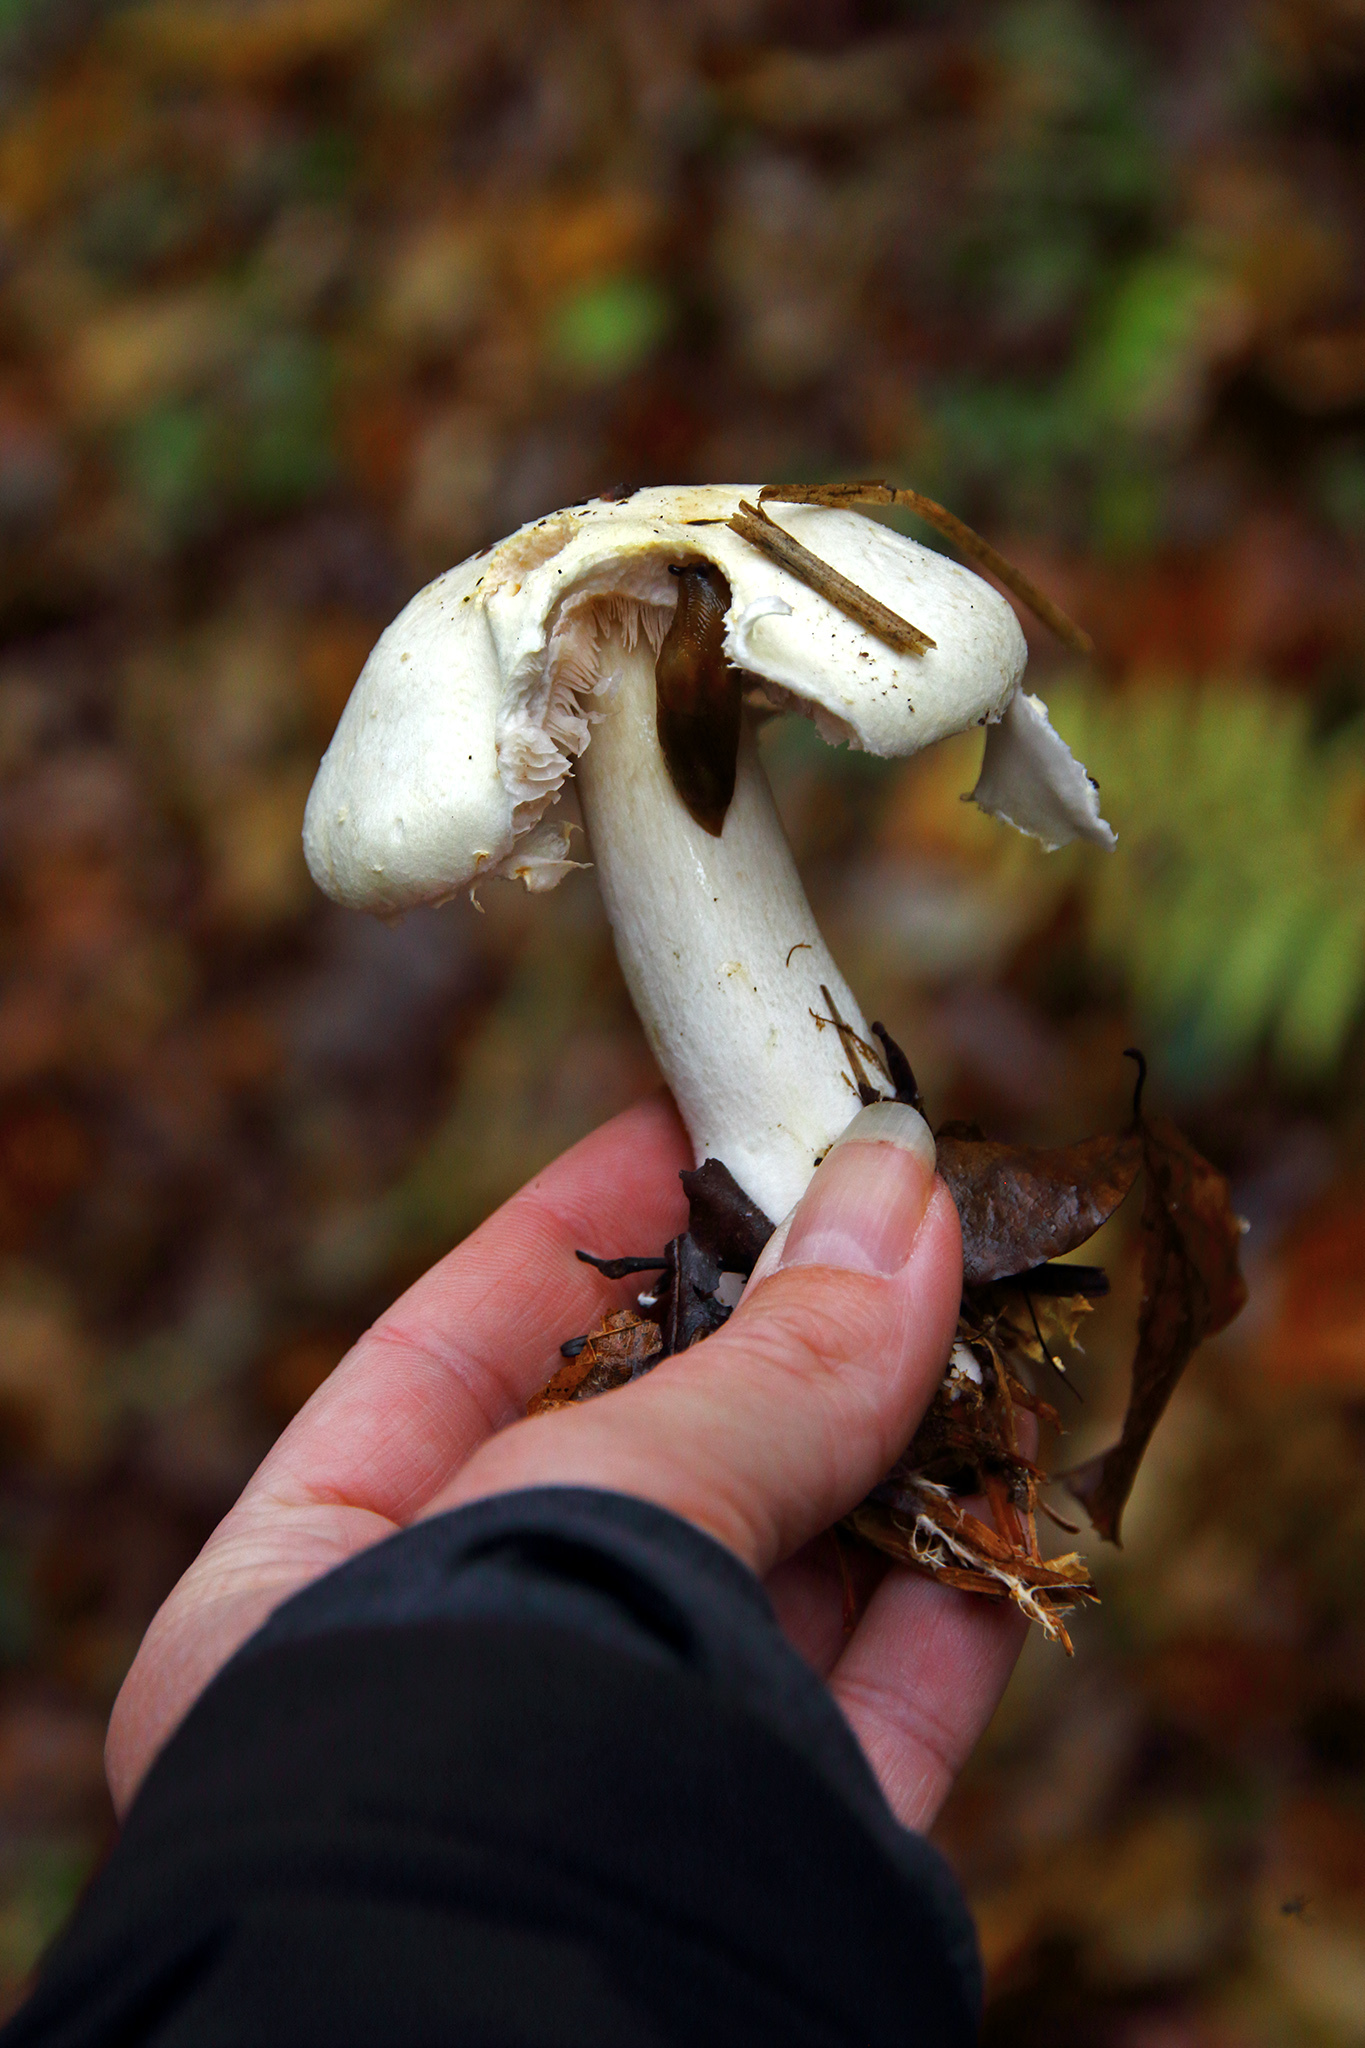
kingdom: Fungi
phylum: Basidiomycota
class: Agaricomycetes
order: Agaricales
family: Agaricaceae
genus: Agaricus
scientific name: Agaricus xanthodermus
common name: Yellow stainer
